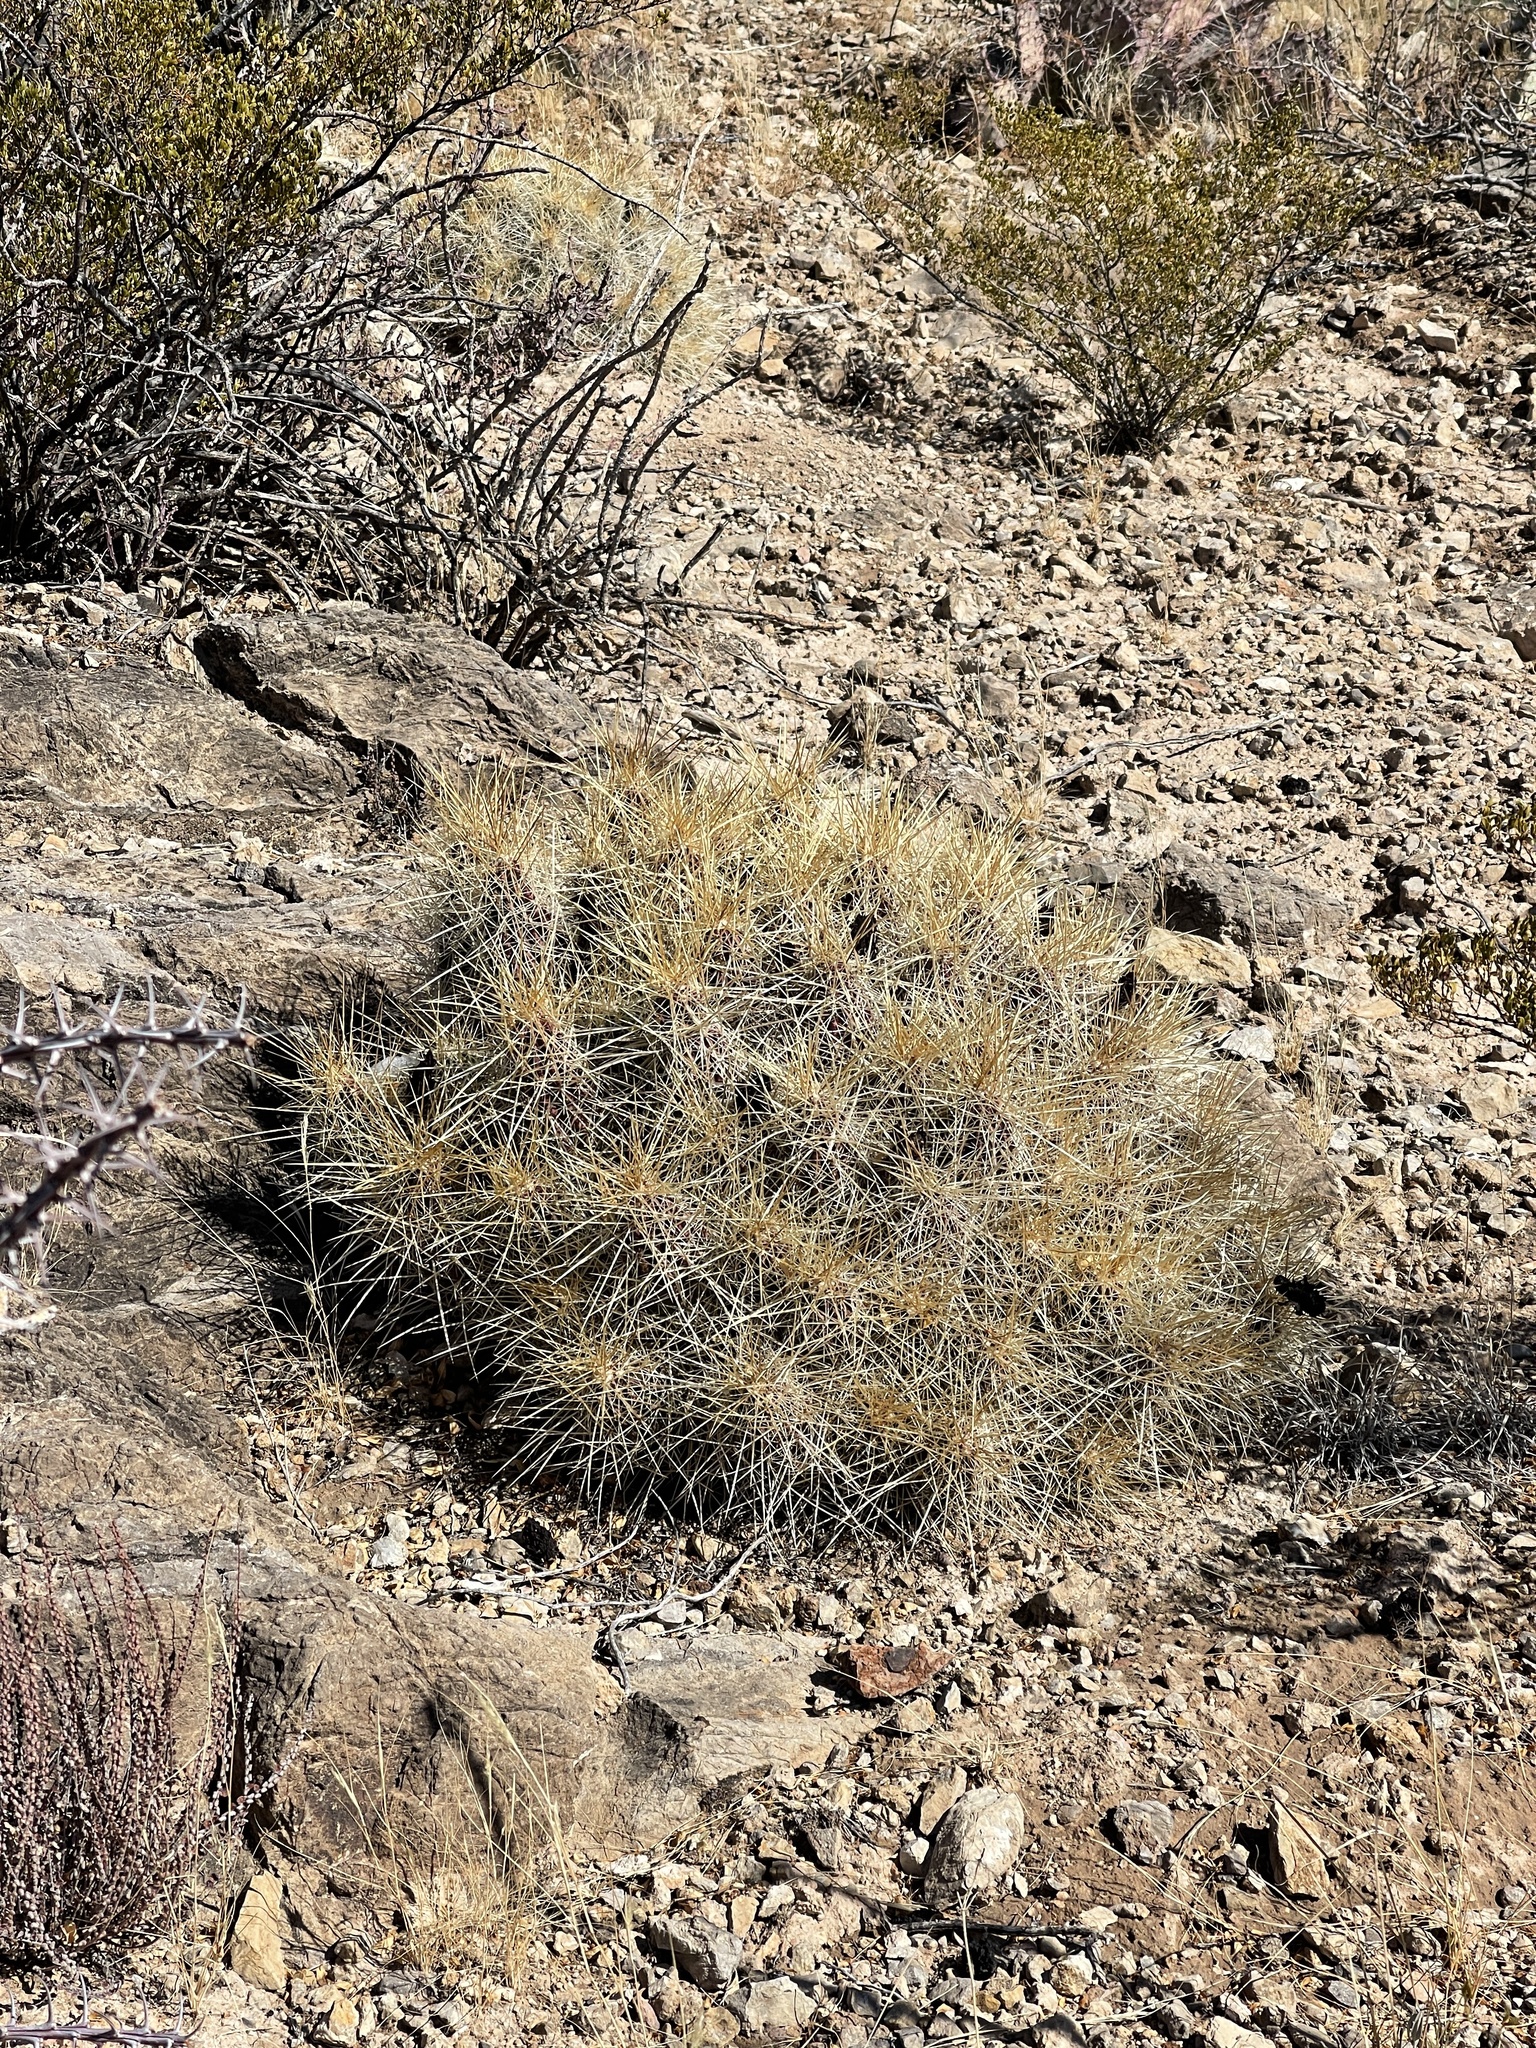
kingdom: Plantae
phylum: Tracheophyta
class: Magnoliopsida
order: Caryophyllales
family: Cactaceae
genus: Echinocereus
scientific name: Echinocereus stramineus
